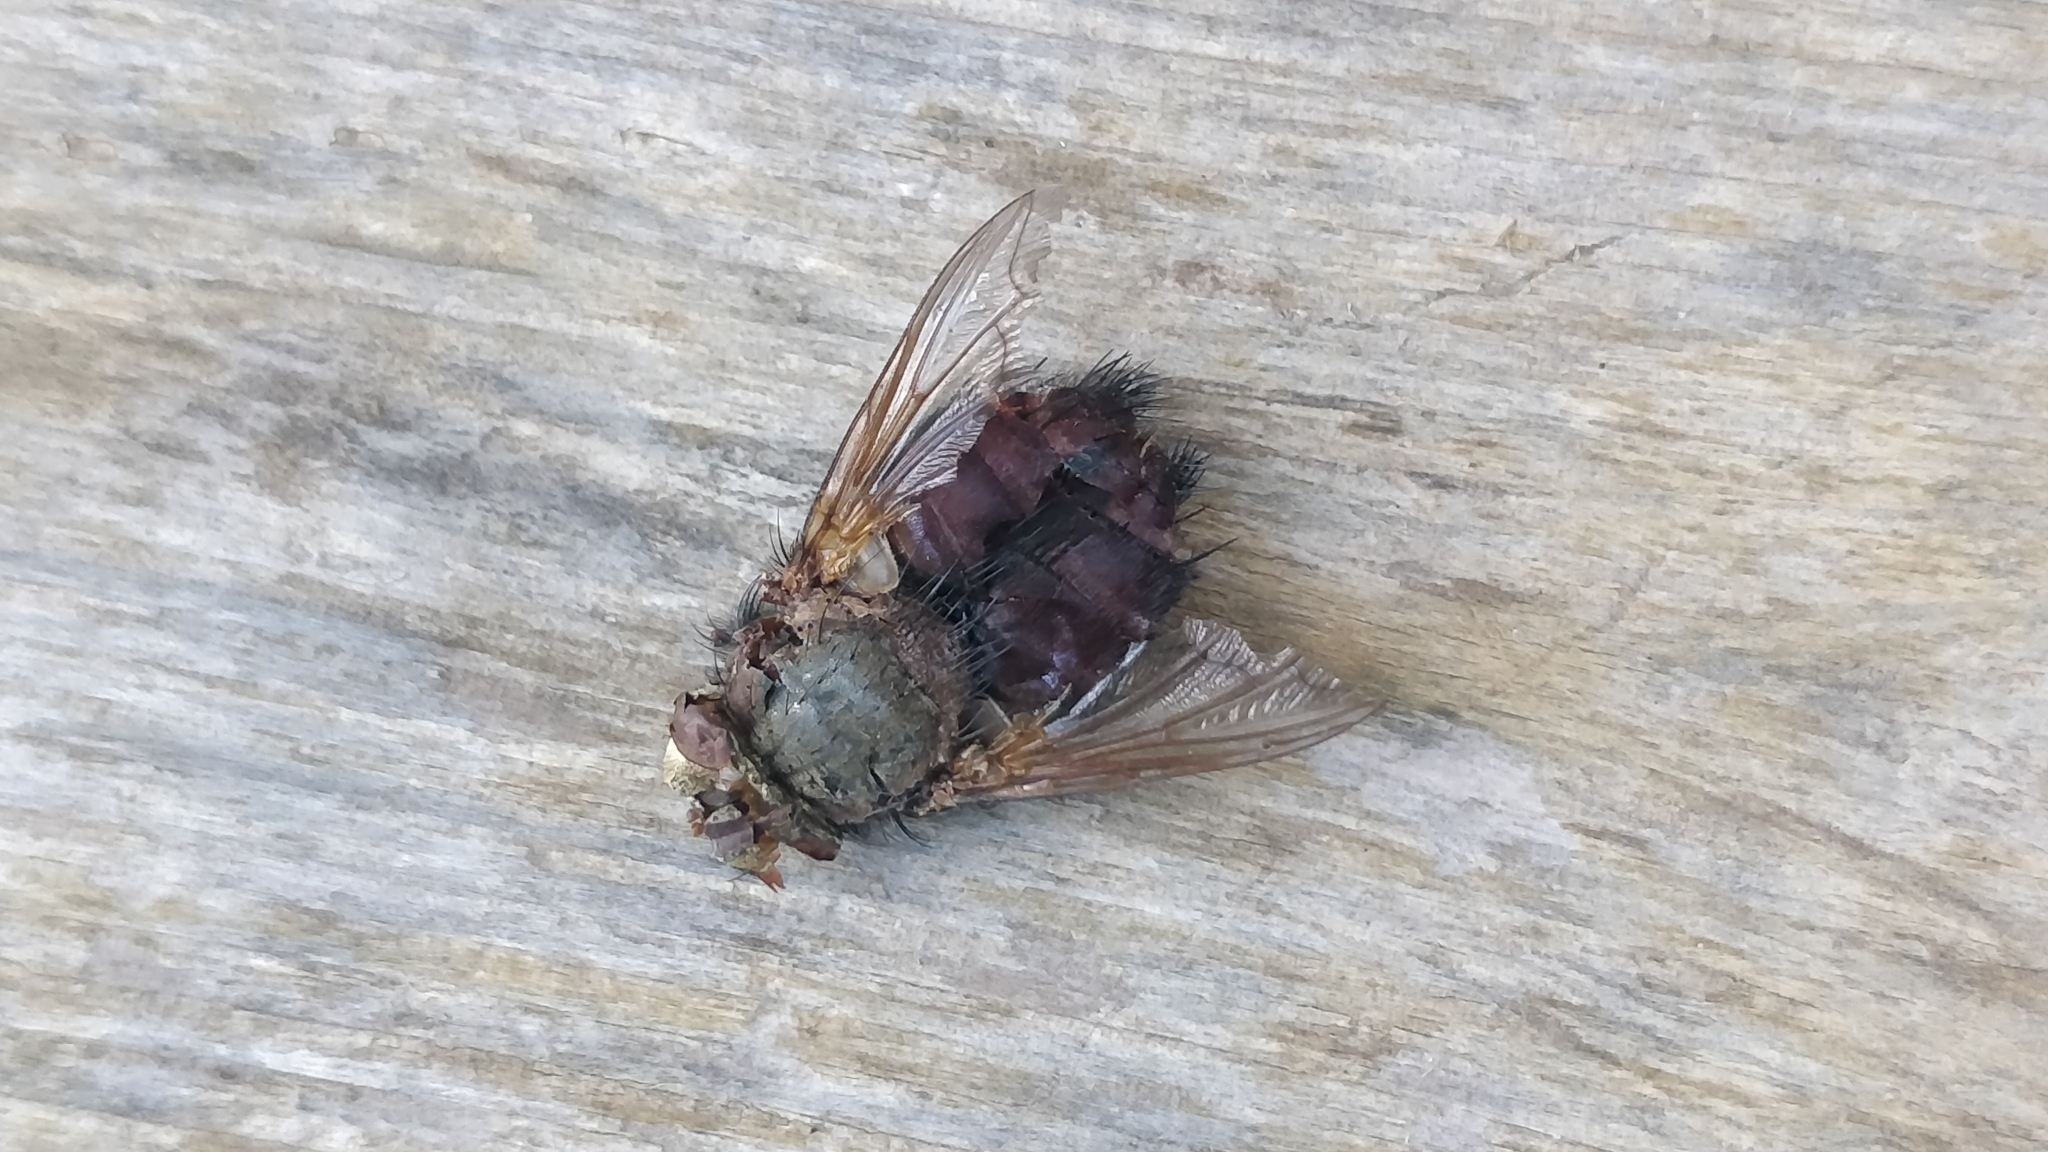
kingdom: Animalia
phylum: Arthropoda
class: Insecta
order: Diptera
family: Tachinidae
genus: Tachina
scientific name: Tachina canariensis
